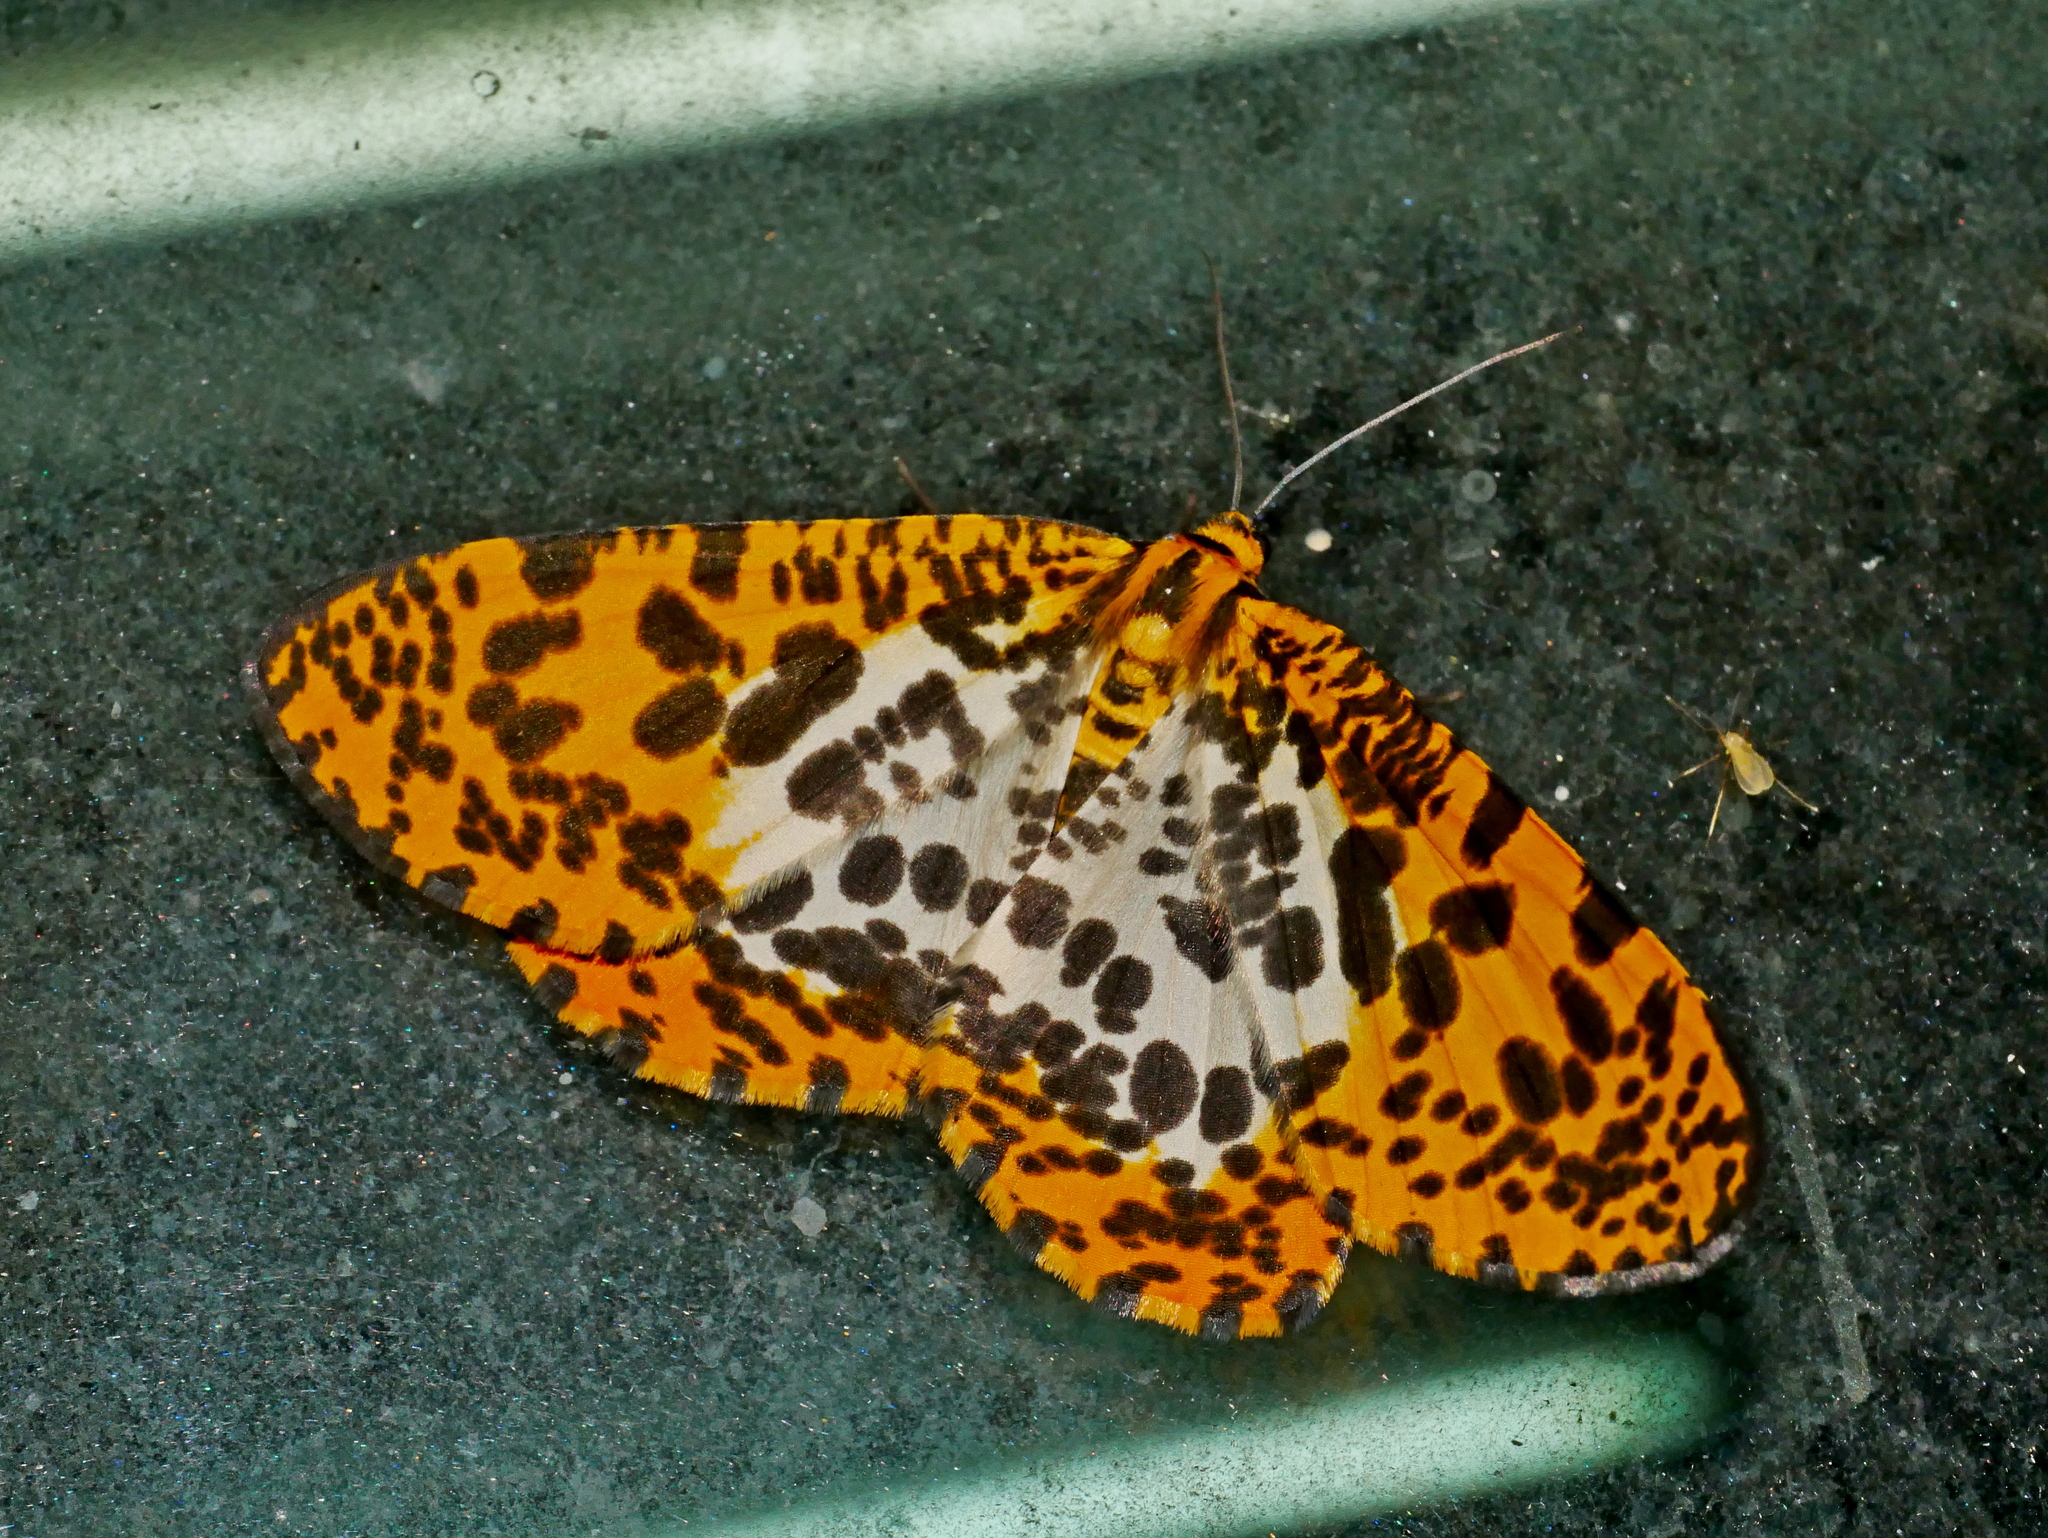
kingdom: Animalia
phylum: Arthropoda
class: Insecta
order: Lepidoptera
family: Geometridae
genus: Obeidia
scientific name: Obeidia Epobeidia tigrata
